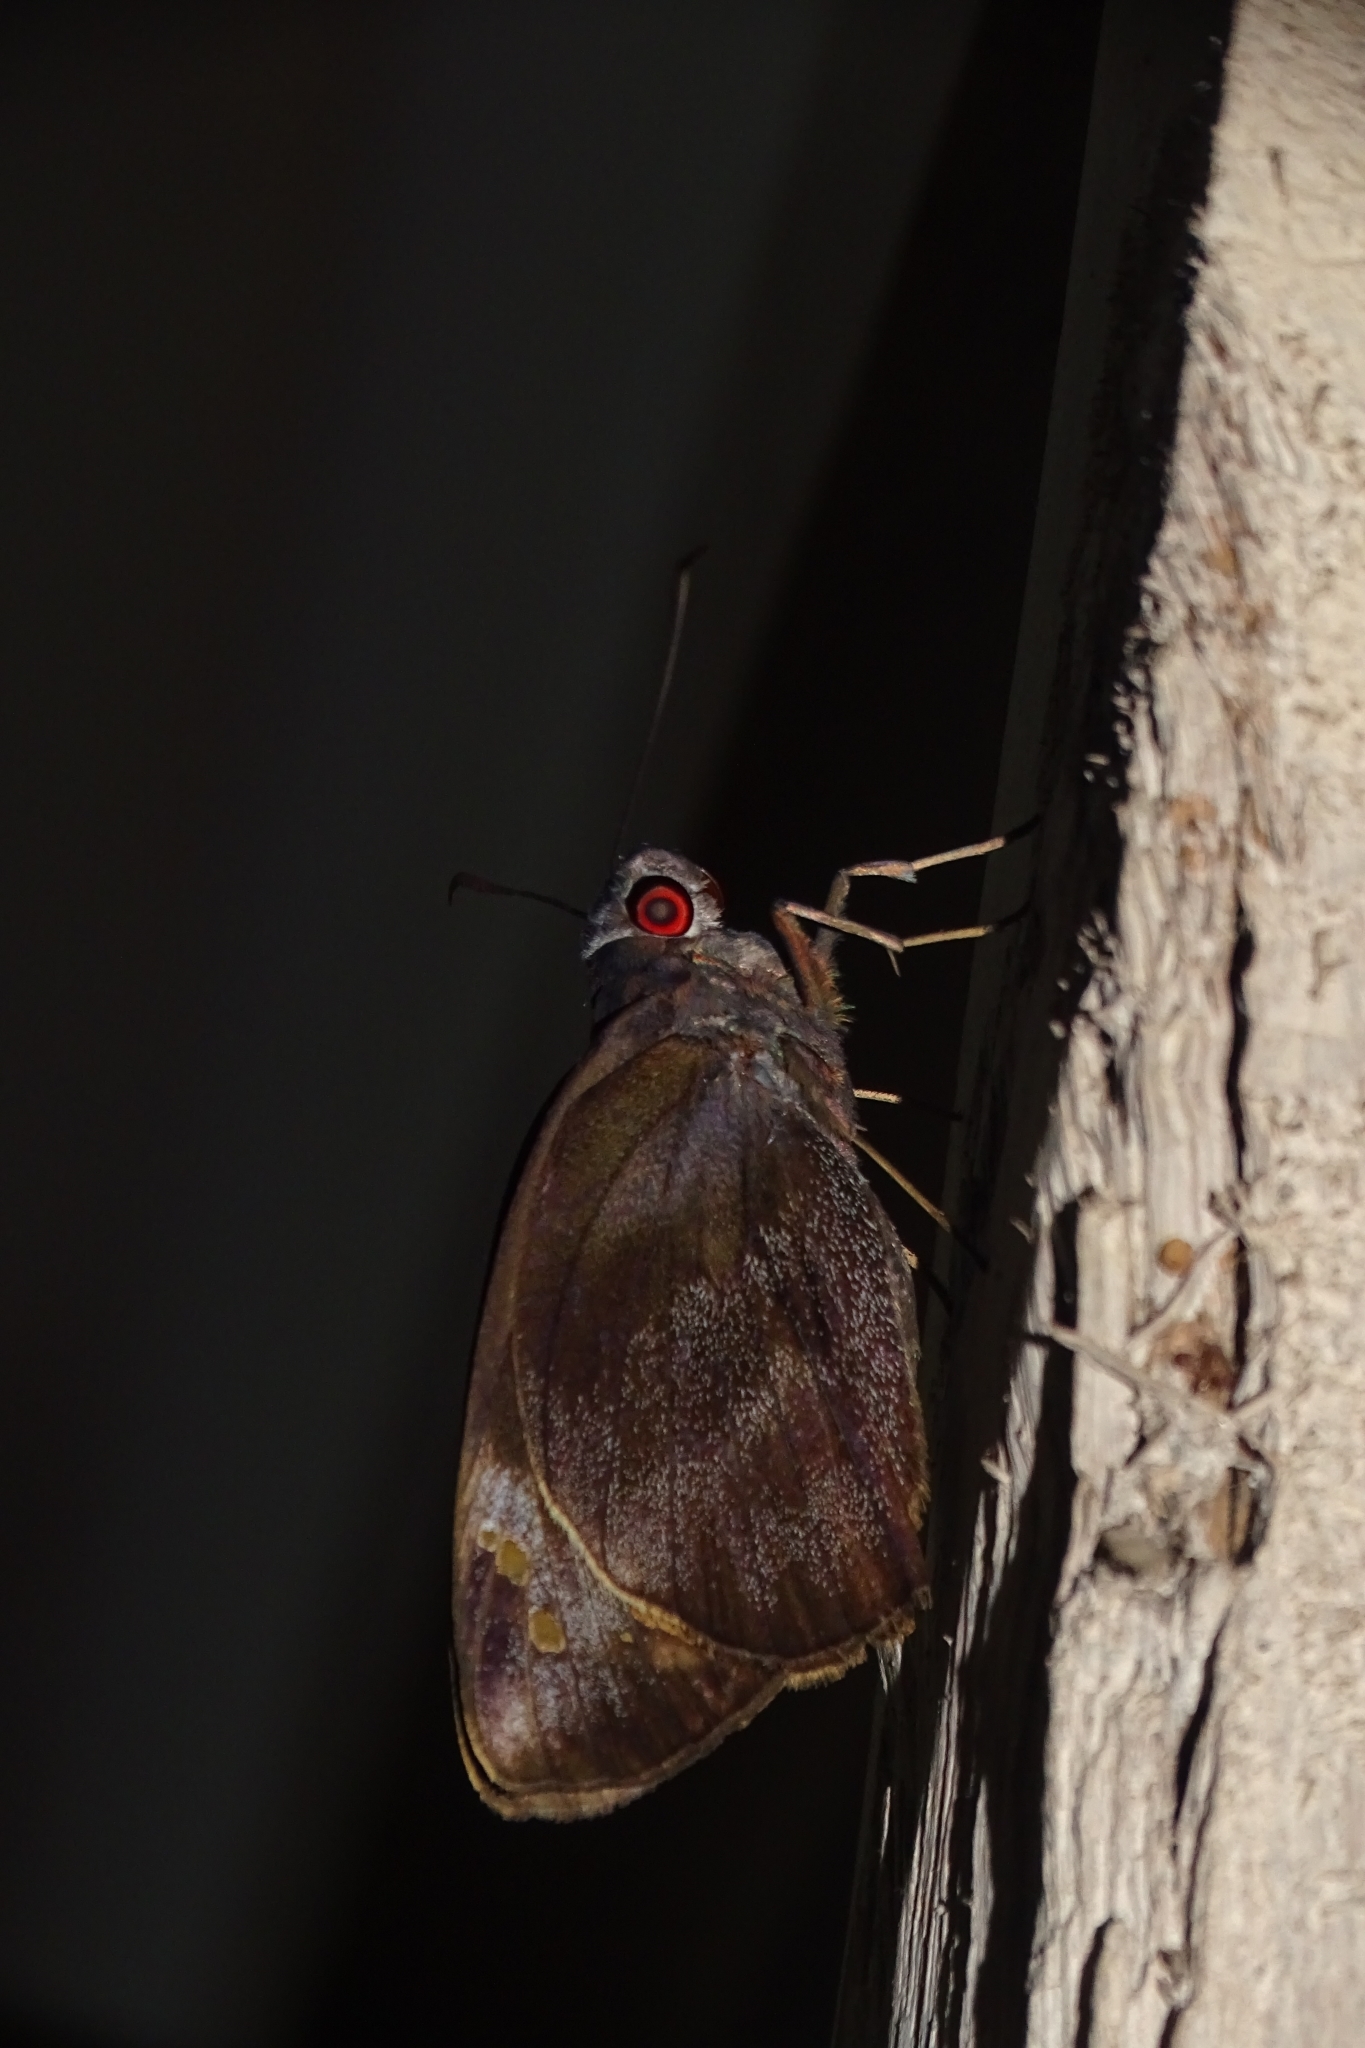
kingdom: Animalia
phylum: Arthropoda
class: Insecta
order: Lepidoptera
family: Hesperiidae
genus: Gangara
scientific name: Gangara thyrsis
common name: Giant redeye
